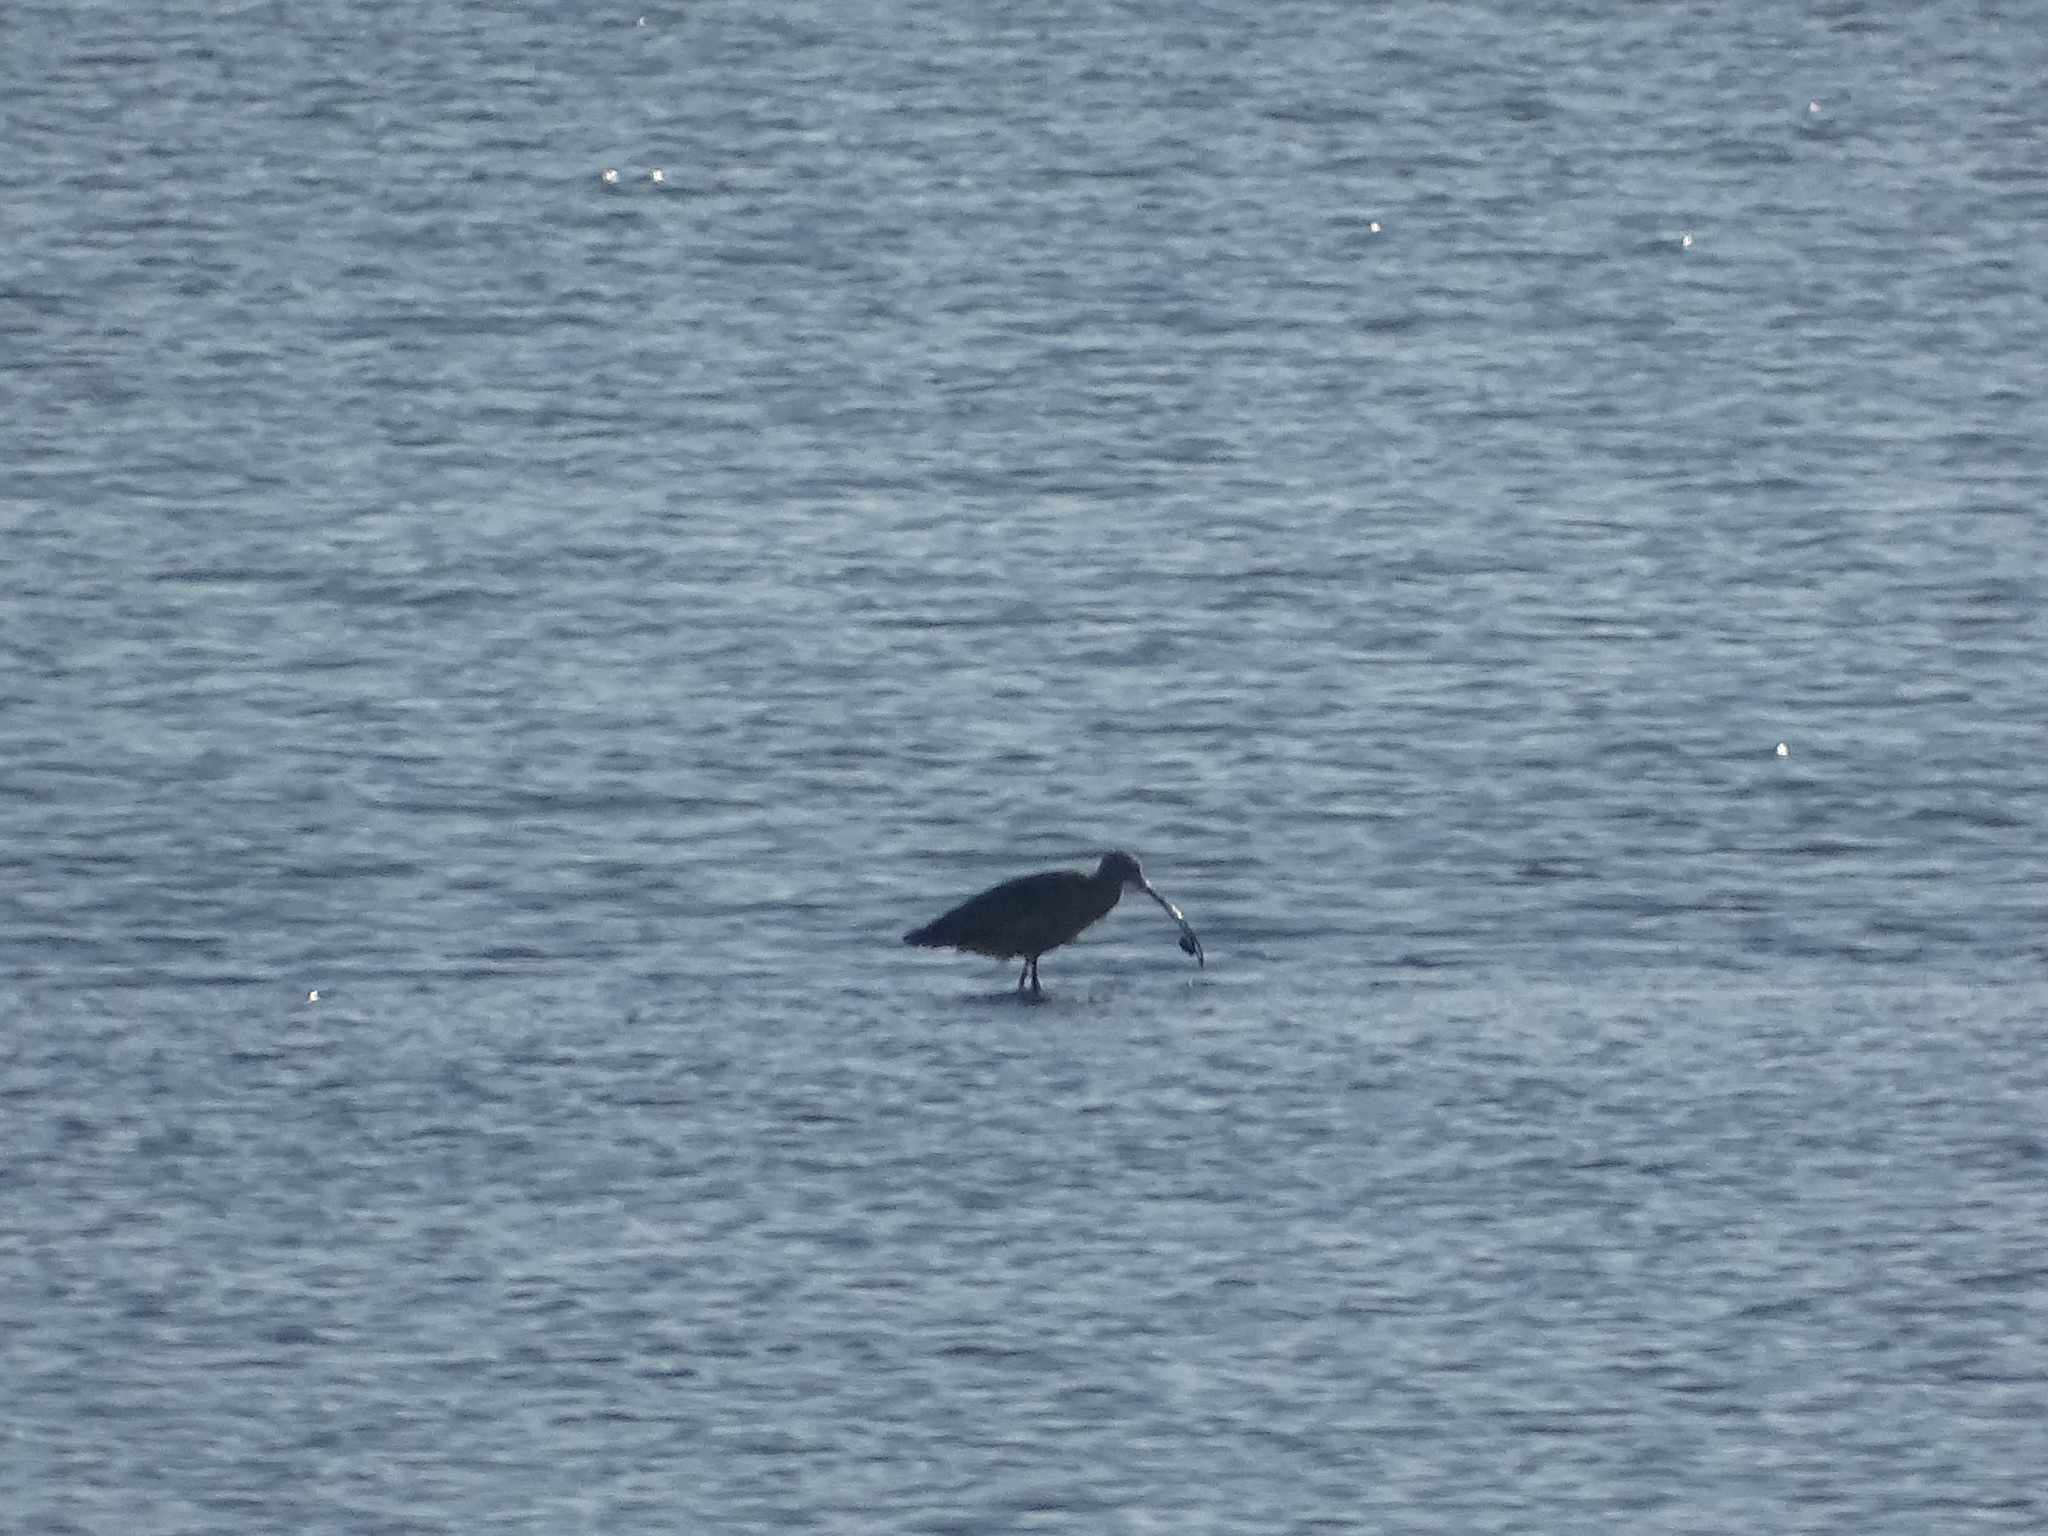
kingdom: Animalia
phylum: Chordata
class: Aves
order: Charadriiformes
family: Scolopacidae
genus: Numenius
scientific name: Numenius americanus
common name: Long-billed curlew
